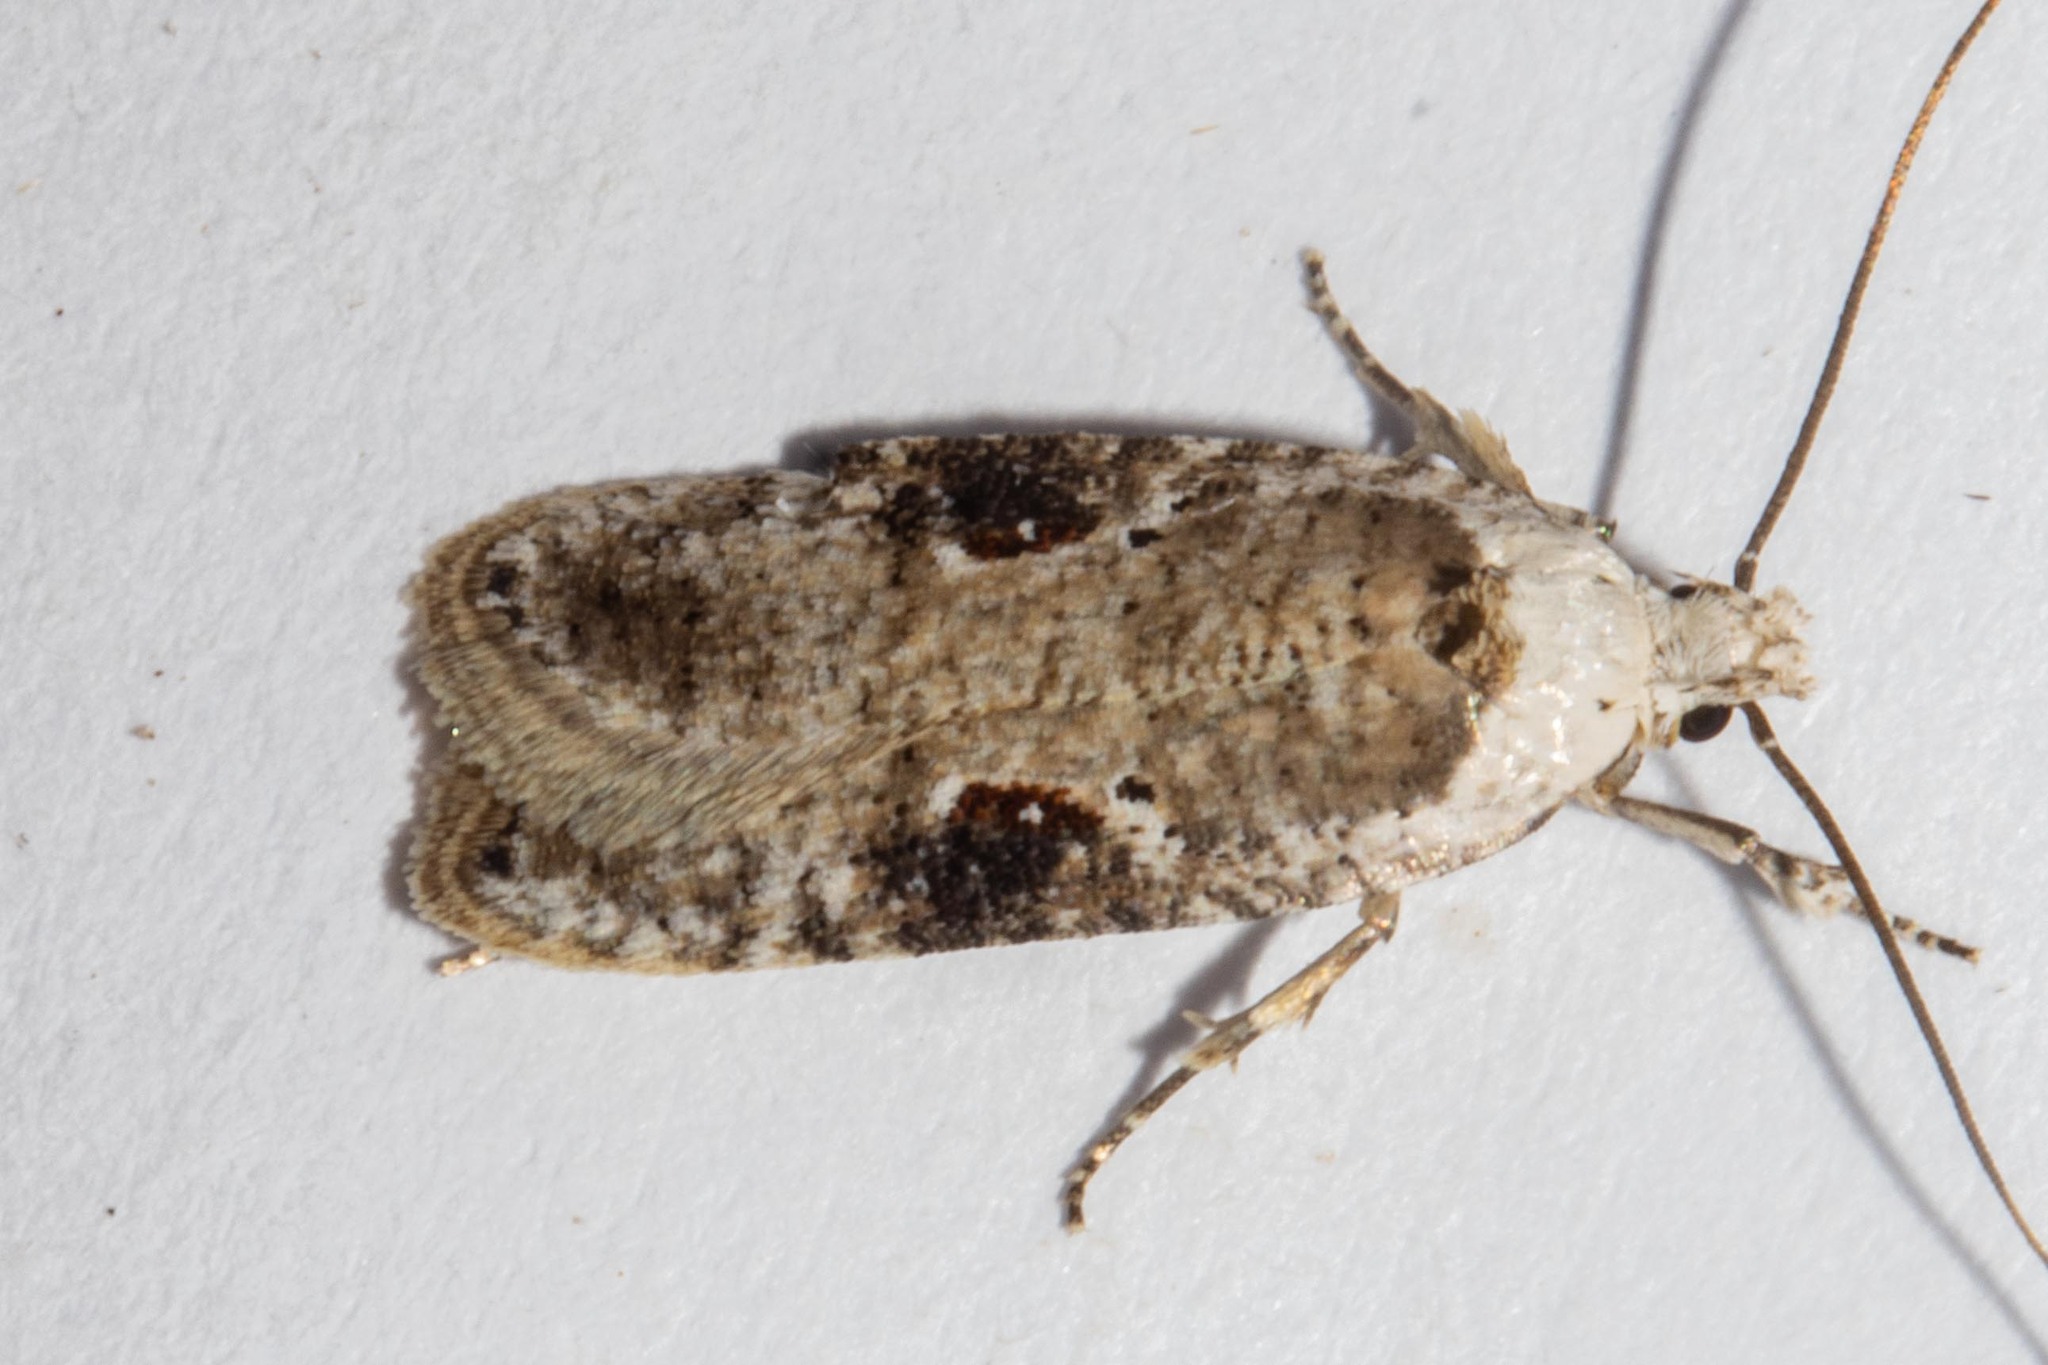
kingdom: Animalia
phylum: Arthropoda
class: Insecta
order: Lepidoptera
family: Depressariidae
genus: Agonopterix
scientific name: Agonopterix alstroemeriana
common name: Moth
